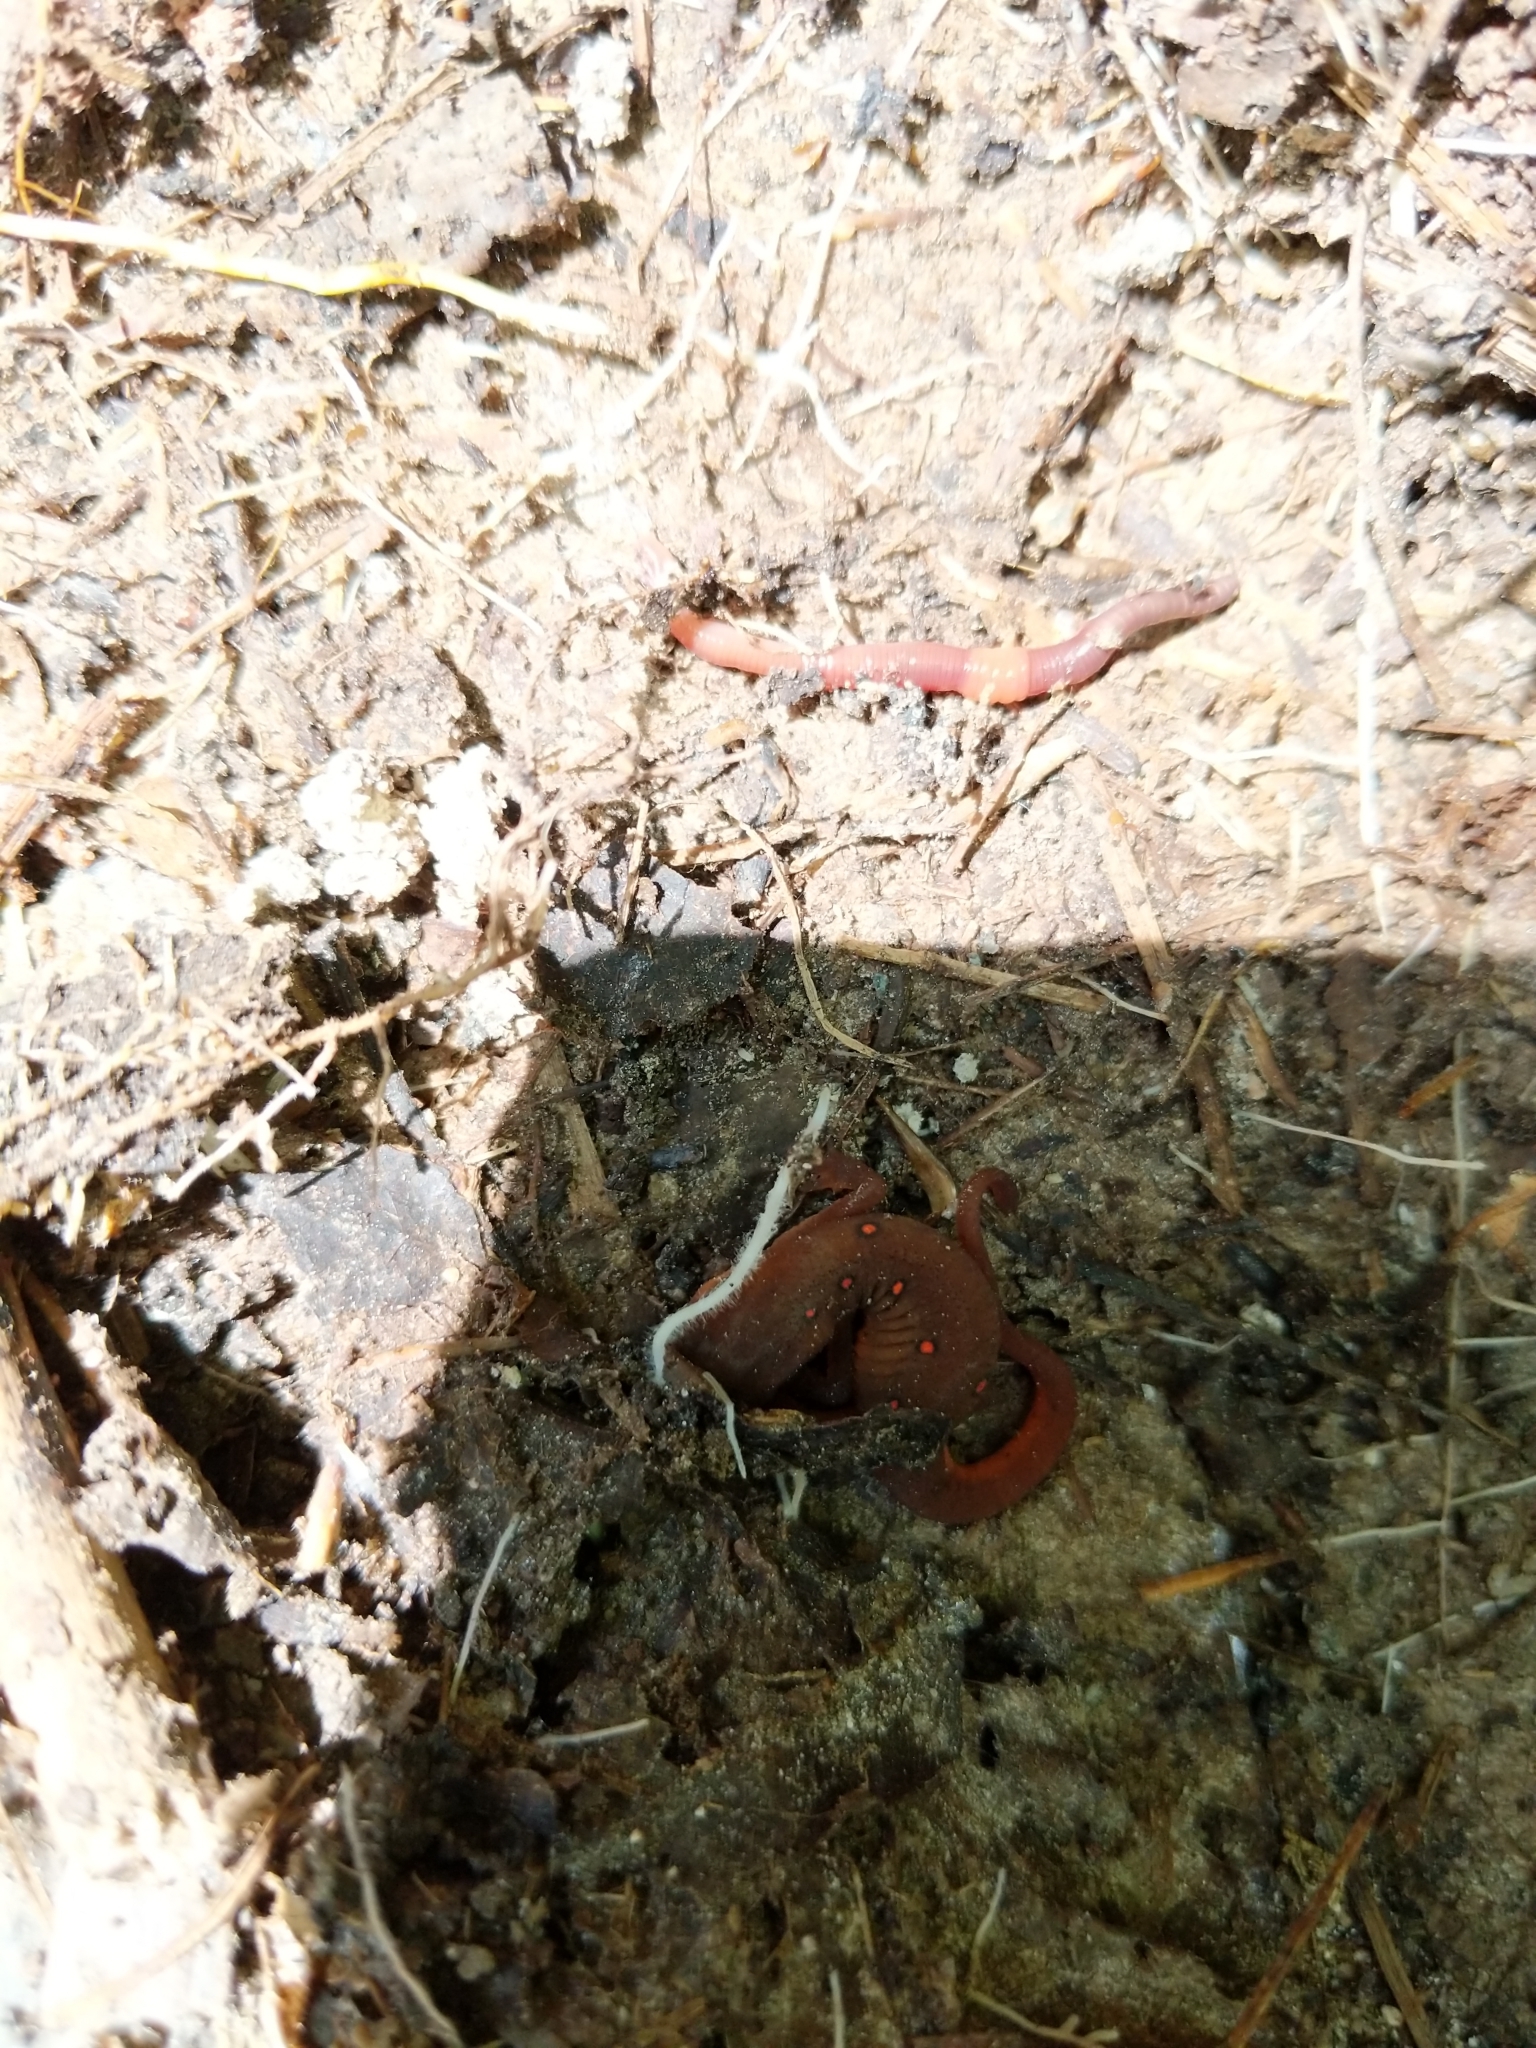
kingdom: Animalia
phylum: Chordata
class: Amphibia
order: Caudata
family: Salamandridae
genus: Notophthalmus
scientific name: Notophthalmus viridescens
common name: Eastern newt
